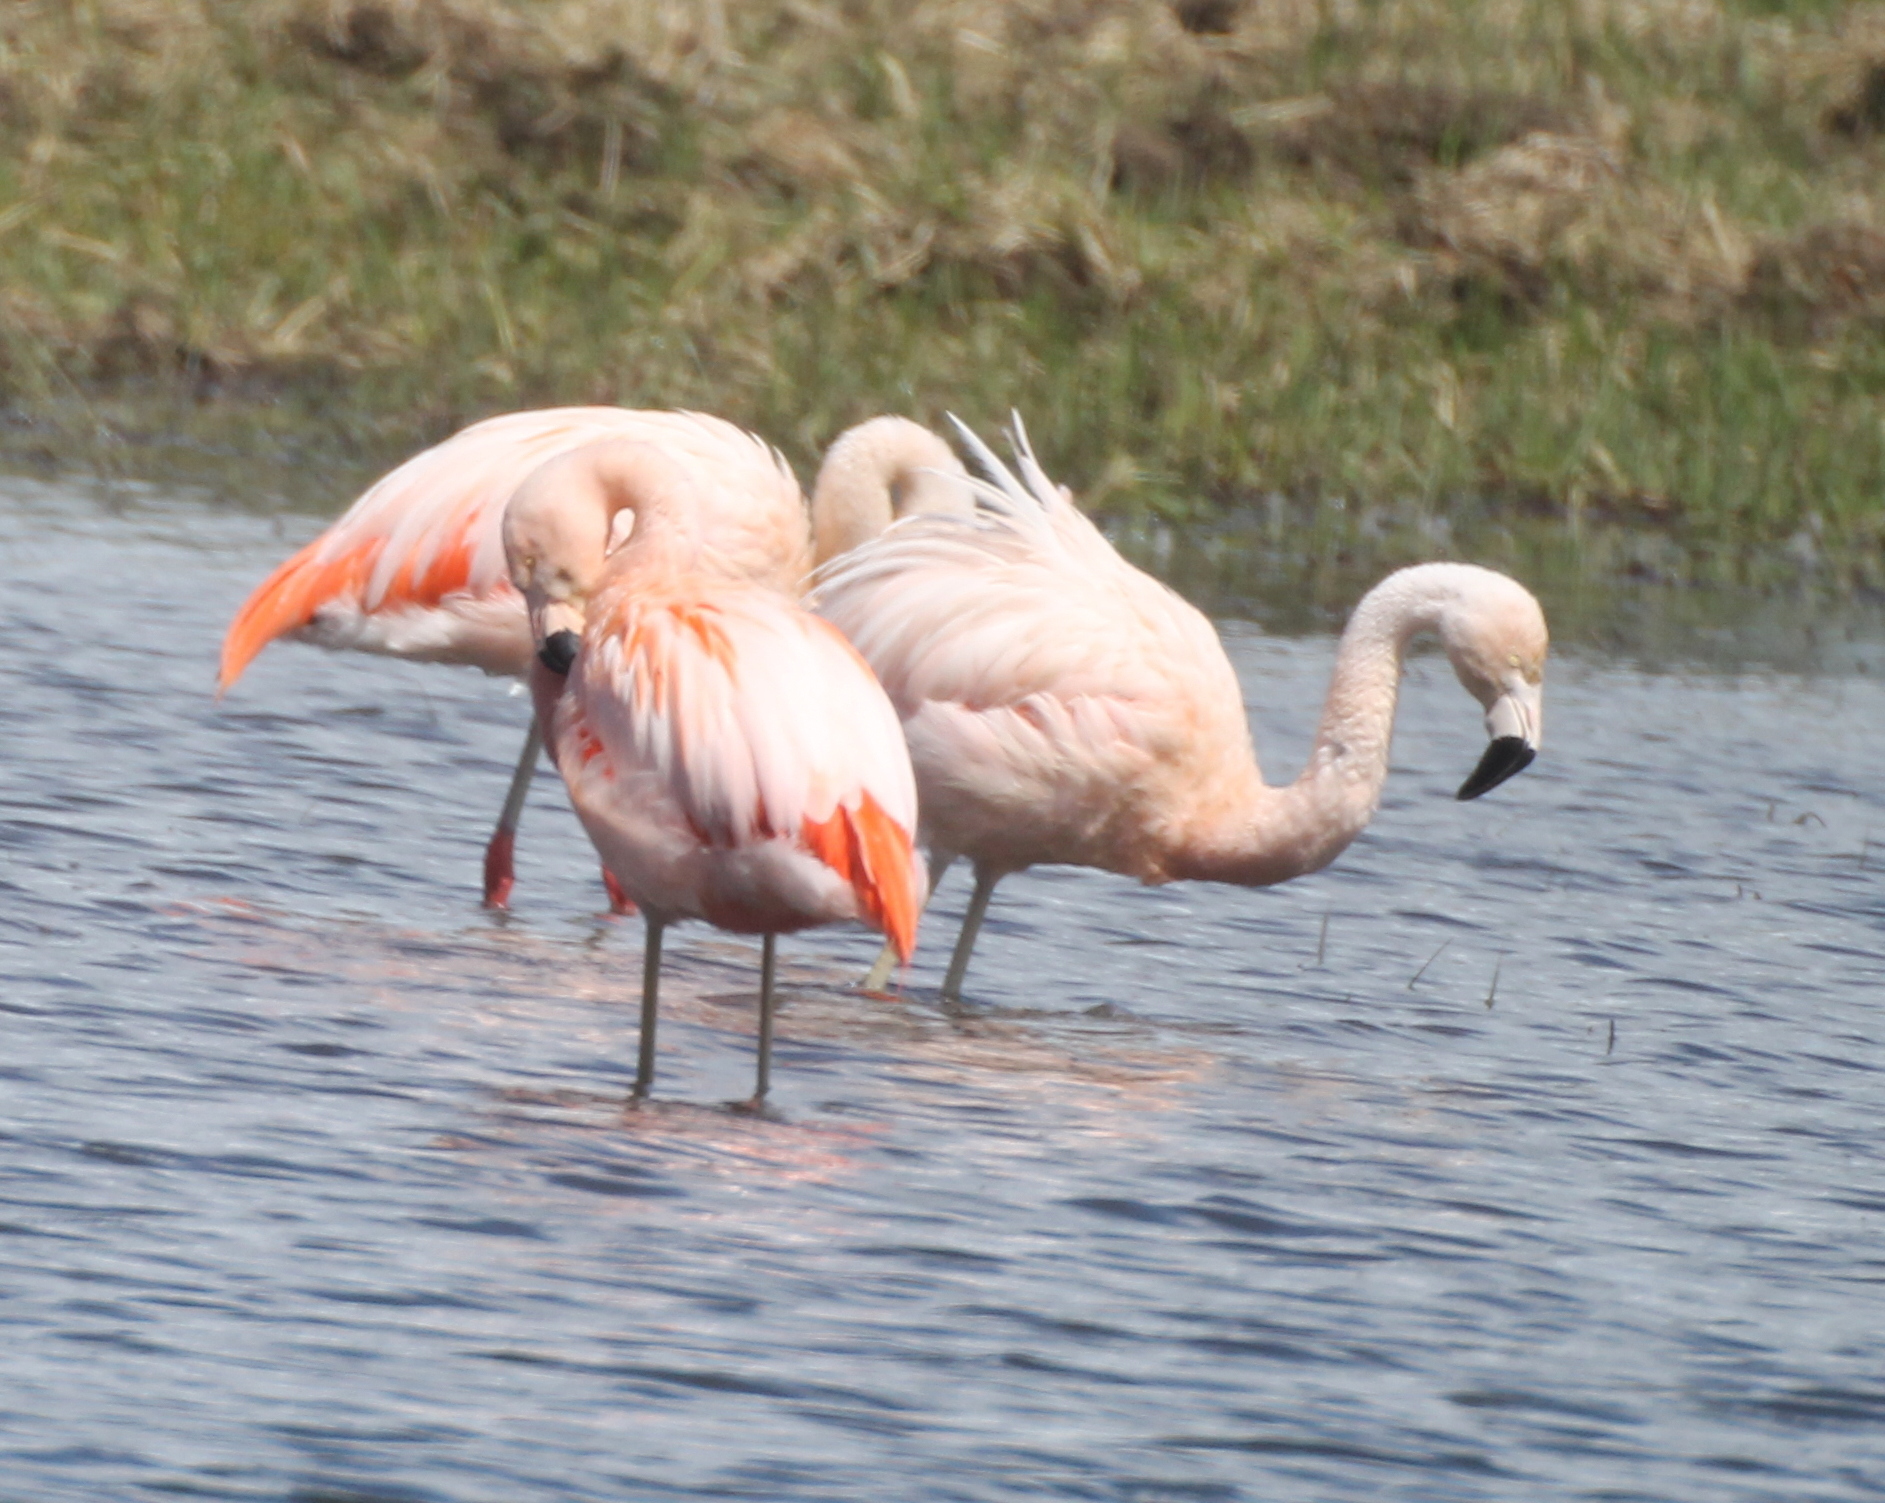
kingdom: Animalia
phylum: Chordata
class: Aves
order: Phoenicopteriformes
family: Phoenicopteridae
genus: Phoenicopterus
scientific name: Phoenicopterus chilensis
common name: Chilean flamingo
